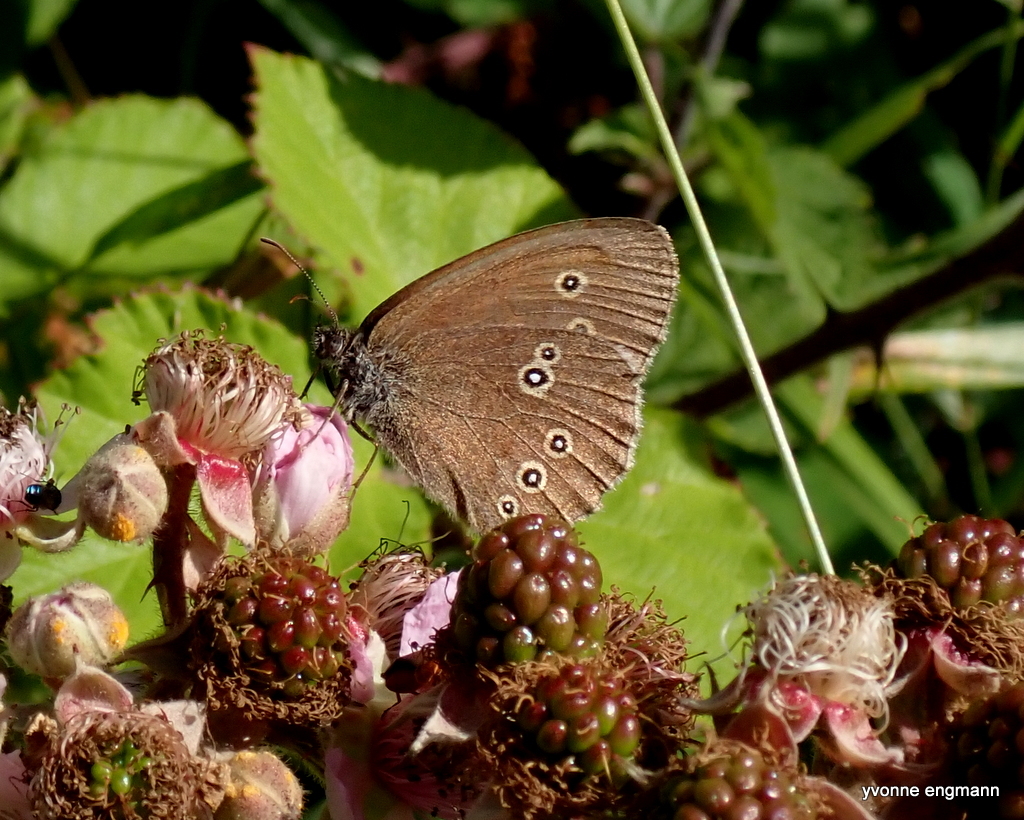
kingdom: Animalia
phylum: Arthropoda
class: Insecta
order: Lepidoptera
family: Nymphalidae
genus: Aphantopus
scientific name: Aphantopus hyperantus
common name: Ringlet
